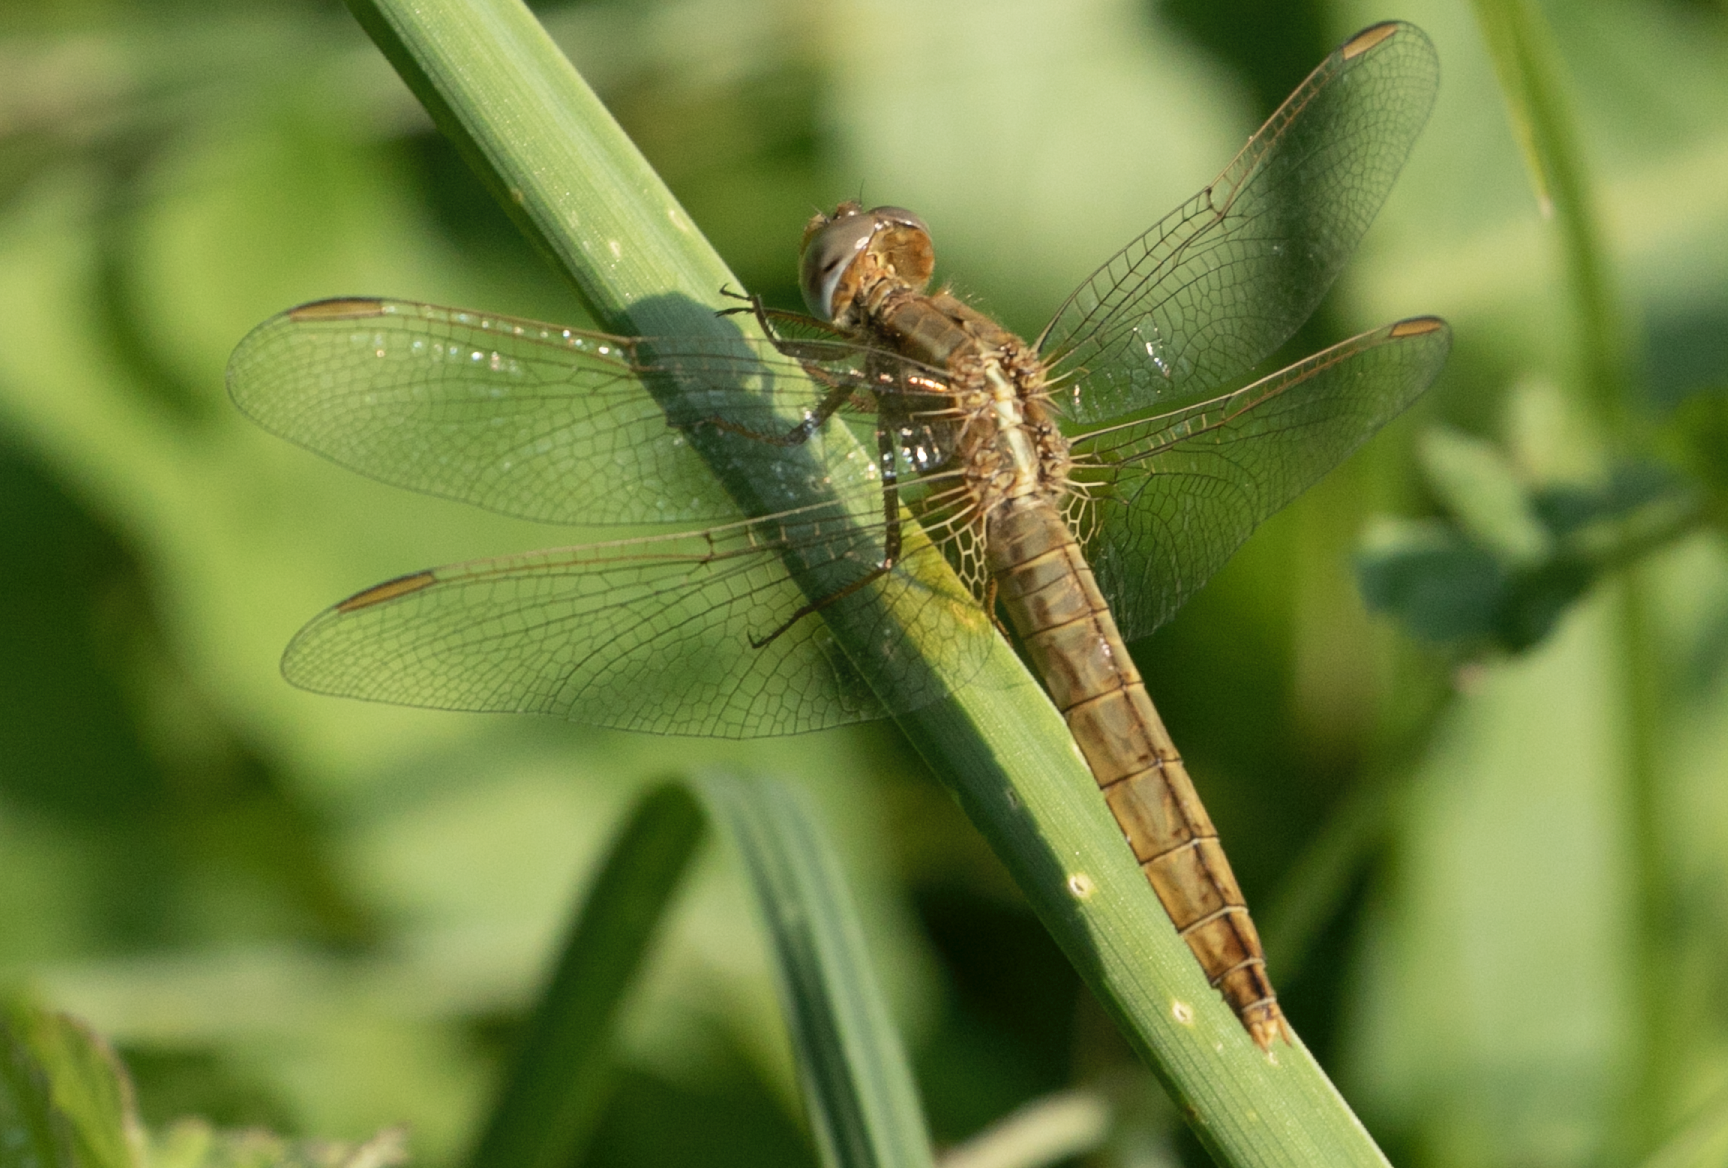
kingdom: Animalia
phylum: Arthropoda
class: Insecta
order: Odonata
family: Libellulidae
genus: Crocothemis
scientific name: Crocothemis erythraea
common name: Scarlet dragonfly
